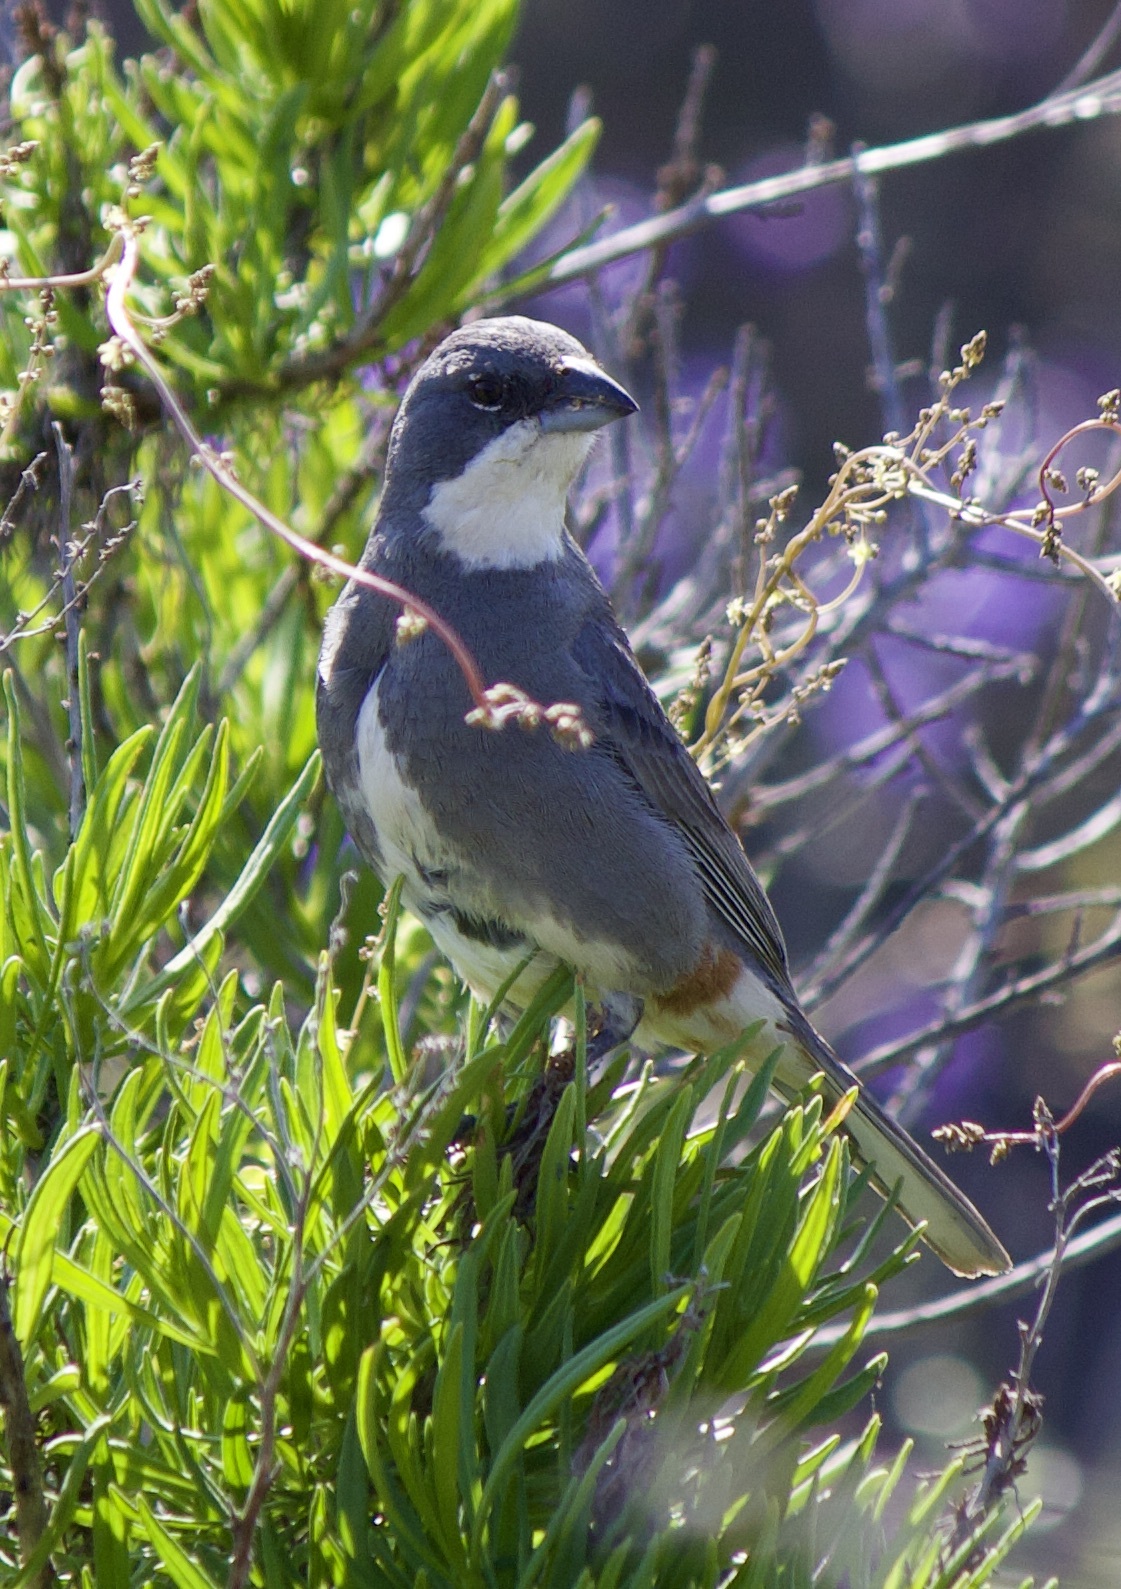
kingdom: Animalia
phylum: Chordata
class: Aves
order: Passeriformes
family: Thraupidae
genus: Diuca
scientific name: Diuca diuca
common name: Common diuca finch
